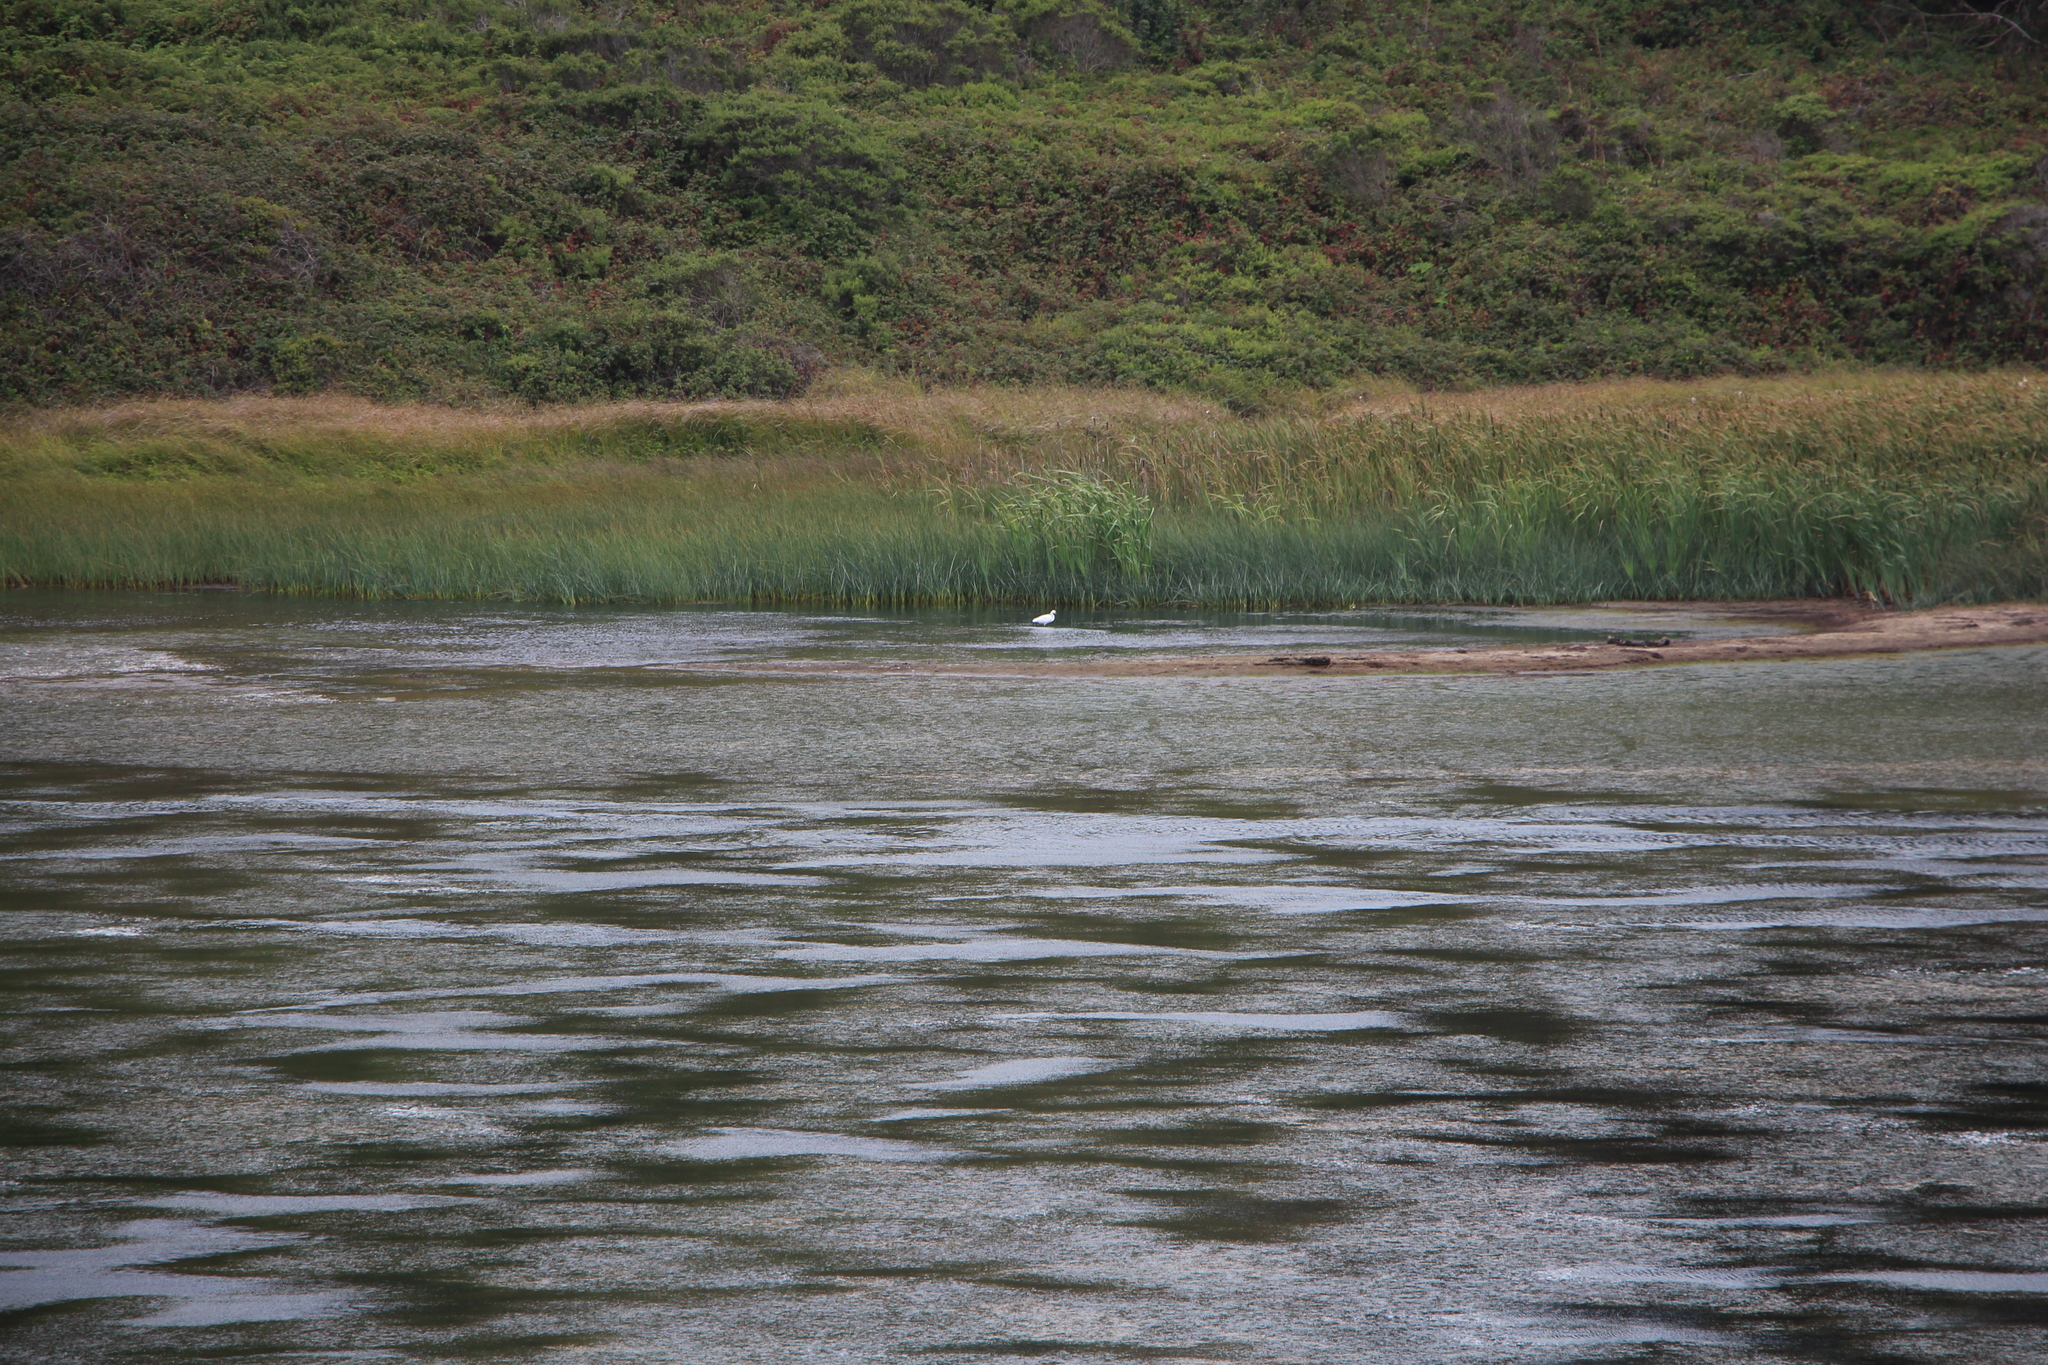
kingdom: Animalia
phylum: Chordata
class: Aves
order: Pelecaniformes
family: Ardeidae
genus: Egretta
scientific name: Egretta thula
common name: Snowy egret
